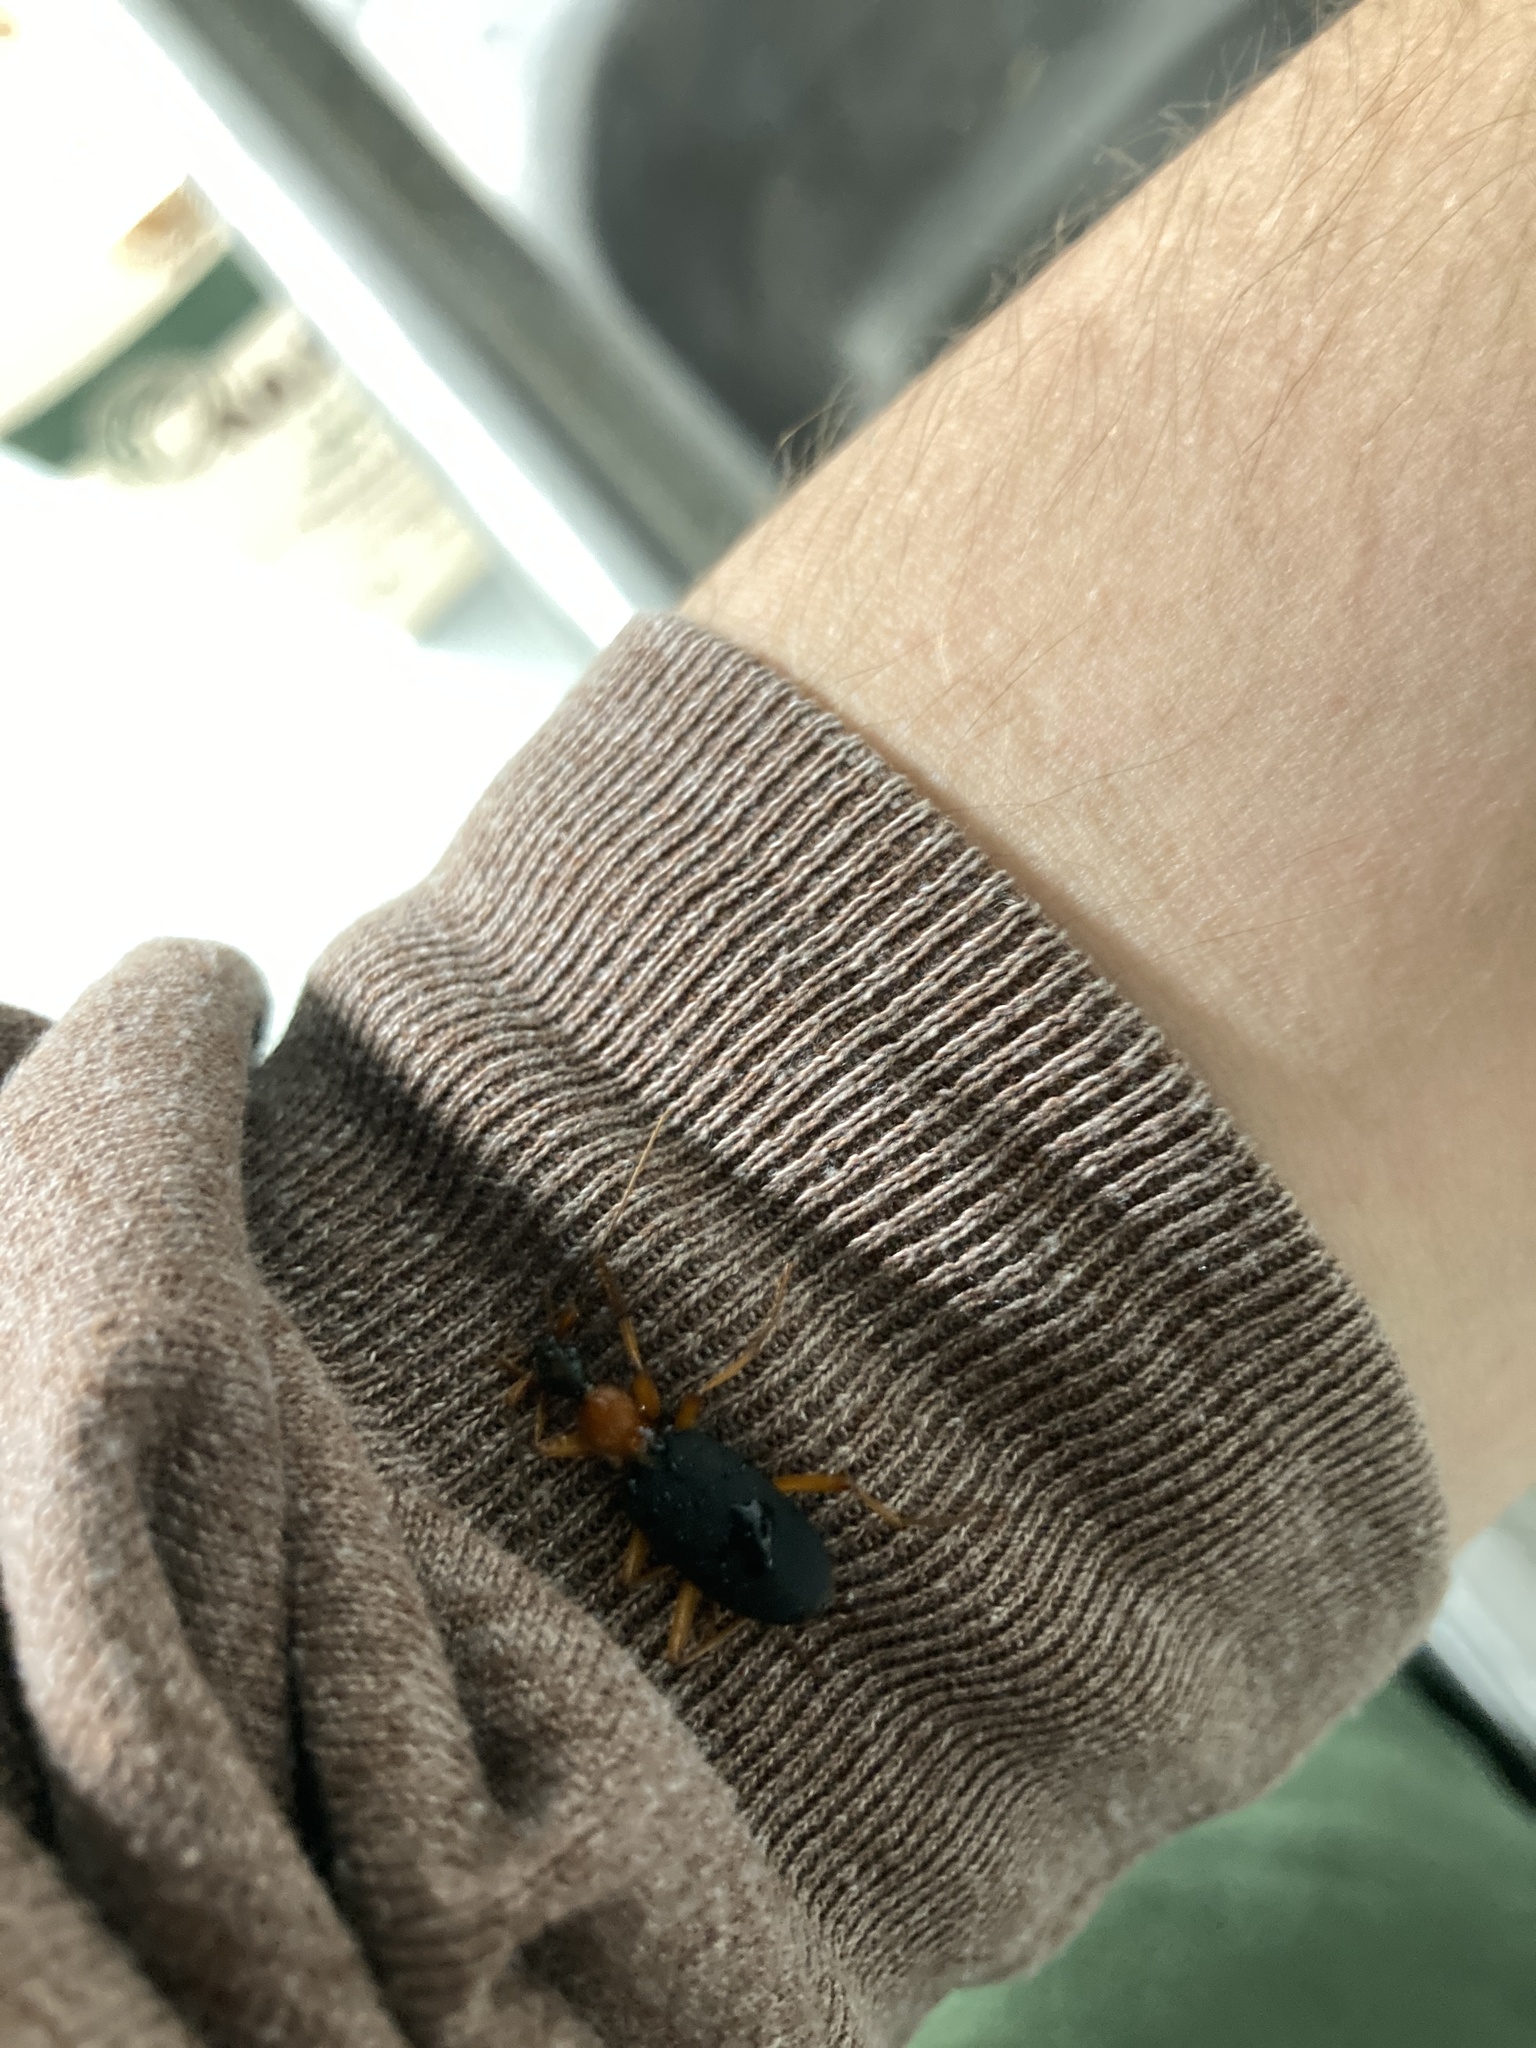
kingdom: Animalia
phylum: Arthropoda
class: Insecta
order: Coleoptera
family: Carabidae
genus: Galerita
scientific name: Galerita bicolor
